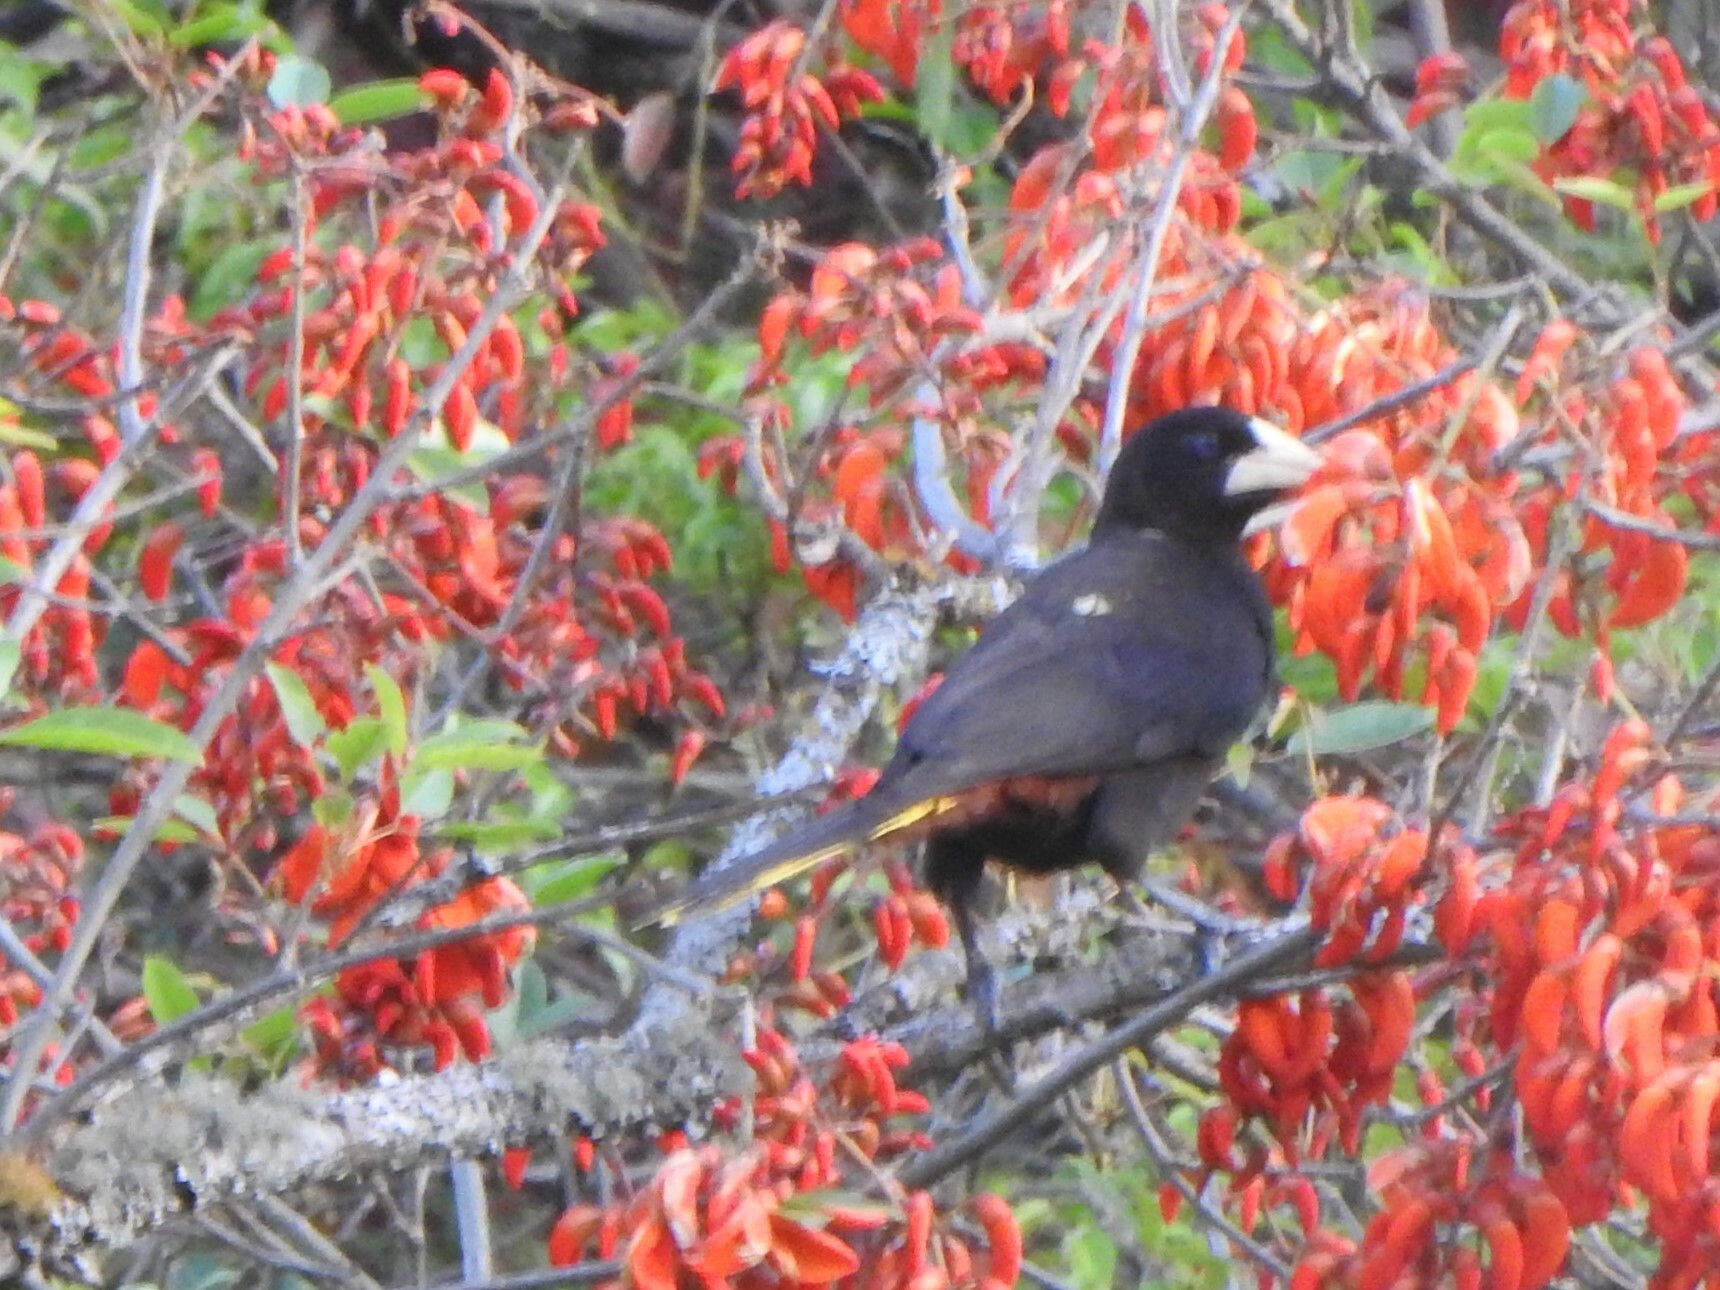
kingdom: Animalia
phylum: Chordata
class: Aves
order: Passeriformes
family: Icteridae
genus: Psarocolius
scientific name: Psarocolius decumanus
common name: Crested oropendola
